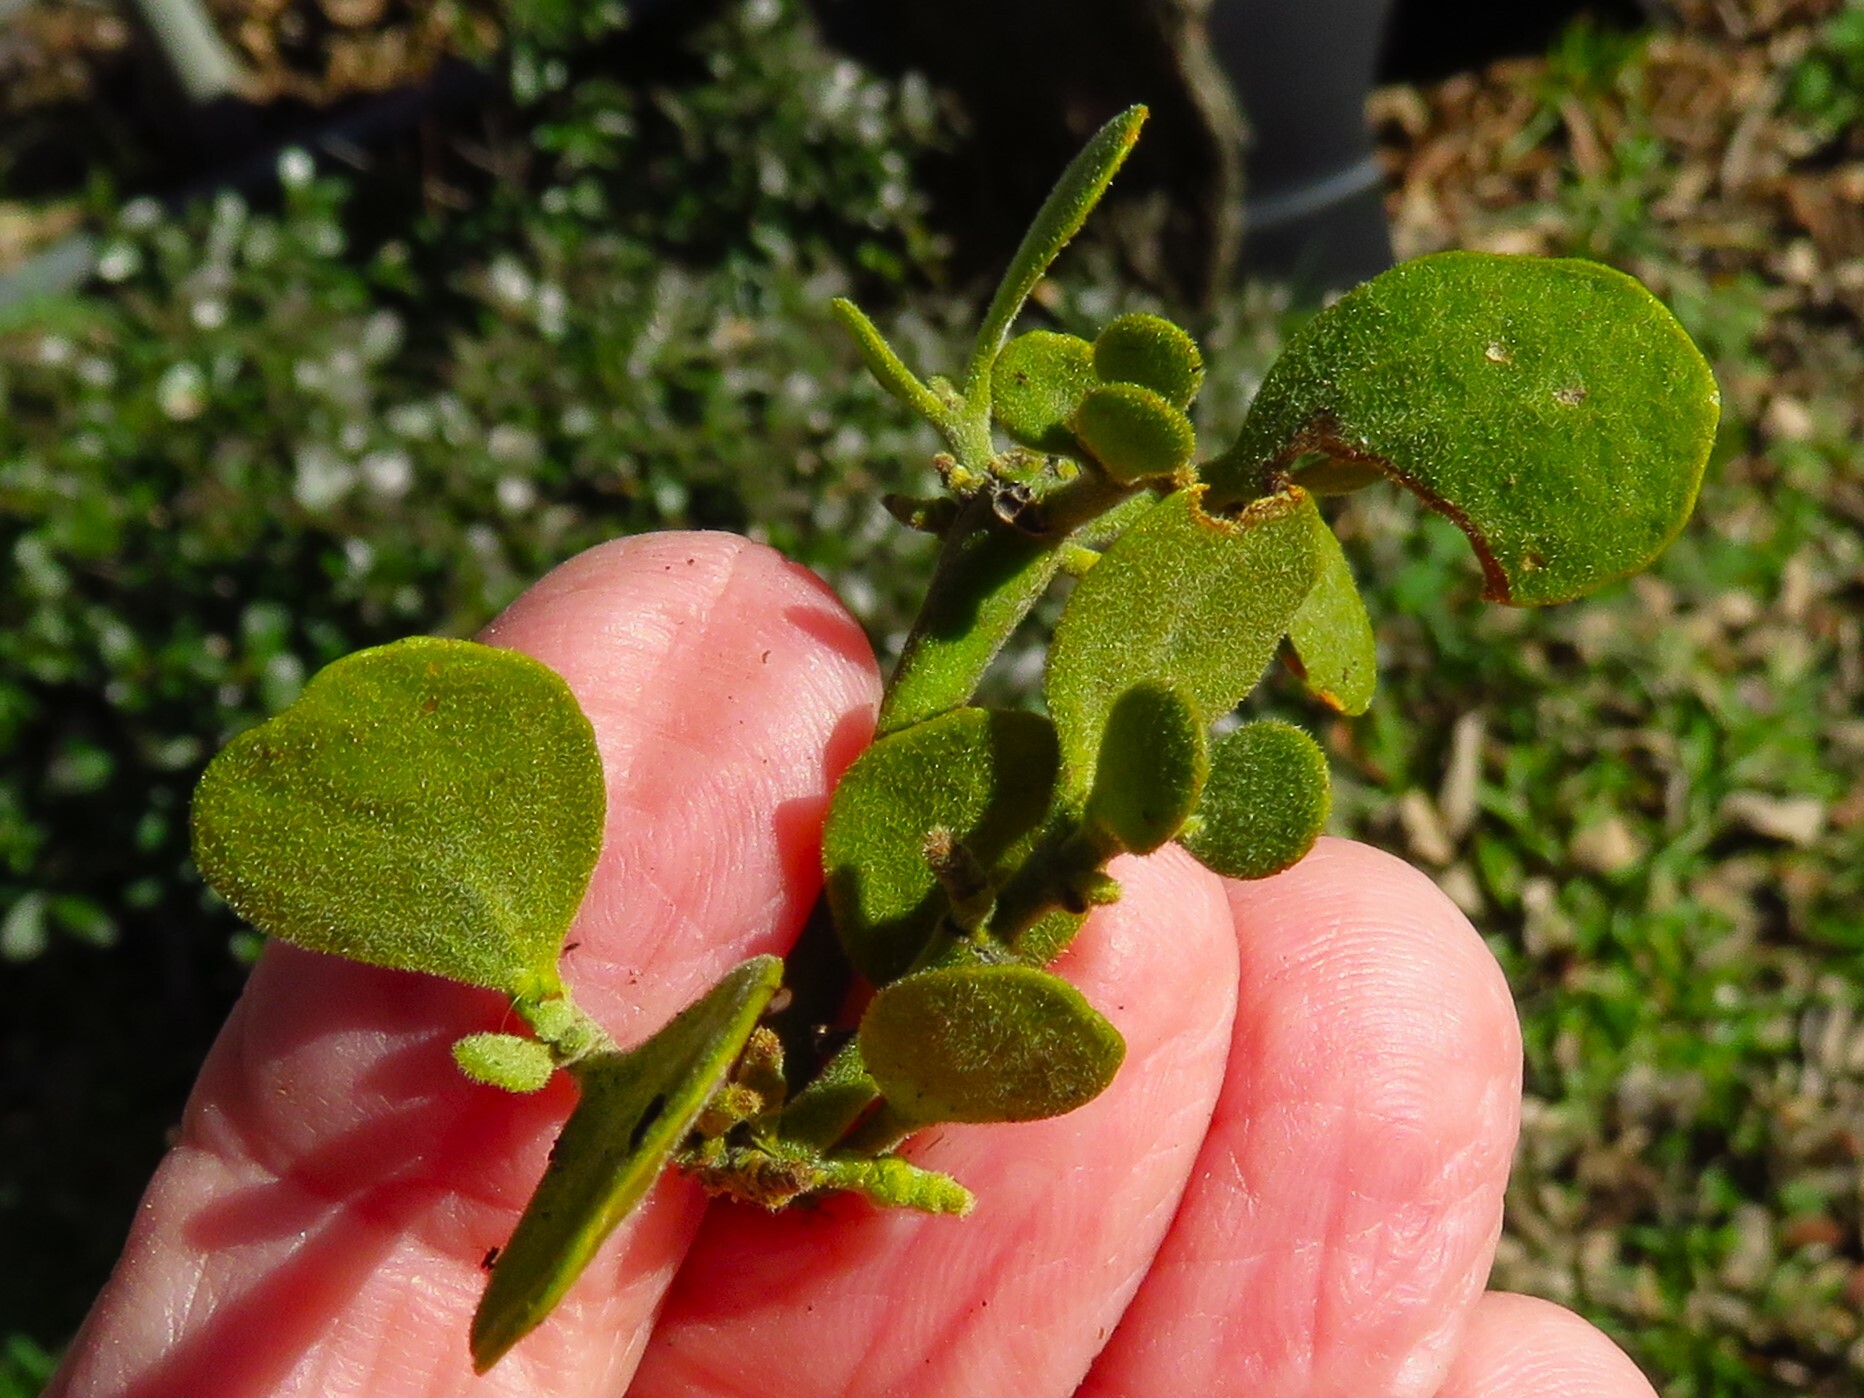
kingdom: Plantae
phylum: Tracheophyta
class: Magnoliopsida
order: Santalales
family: Viscaceae
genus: Phoradendron
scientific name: Phoradendron leucarpum
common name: Pacific mistletoe
